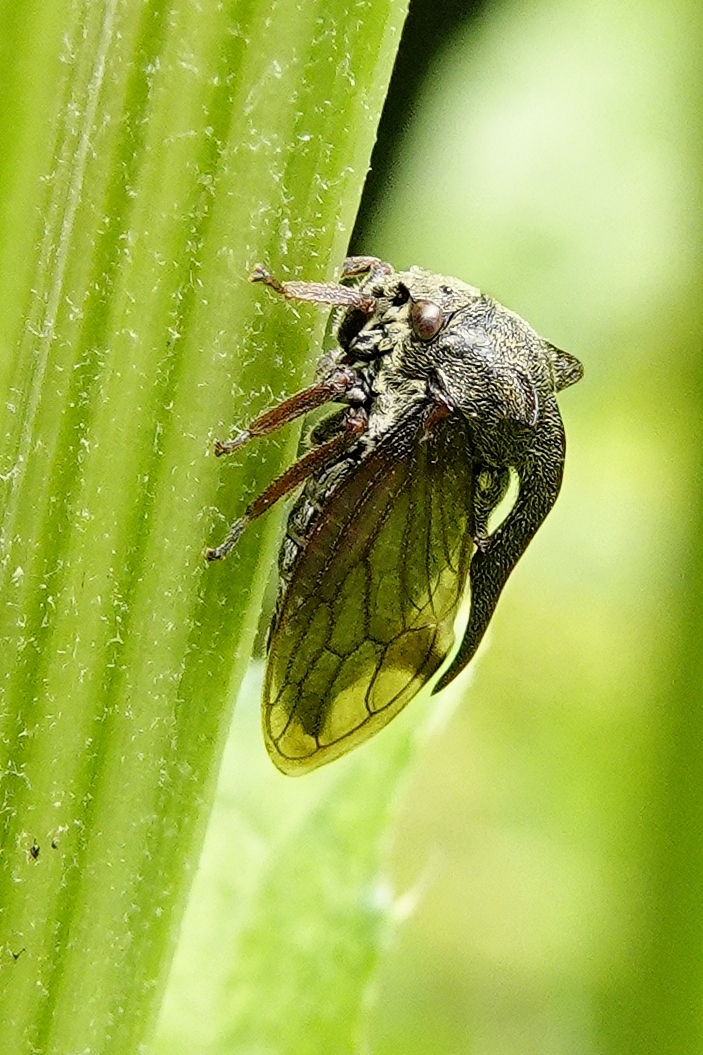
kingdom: Animalia
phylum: Arthropoda
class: Insecta
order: Hemiptera
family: Membracidae
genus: Centrotus
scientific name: Centrotus cornuta
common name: Treehopper
